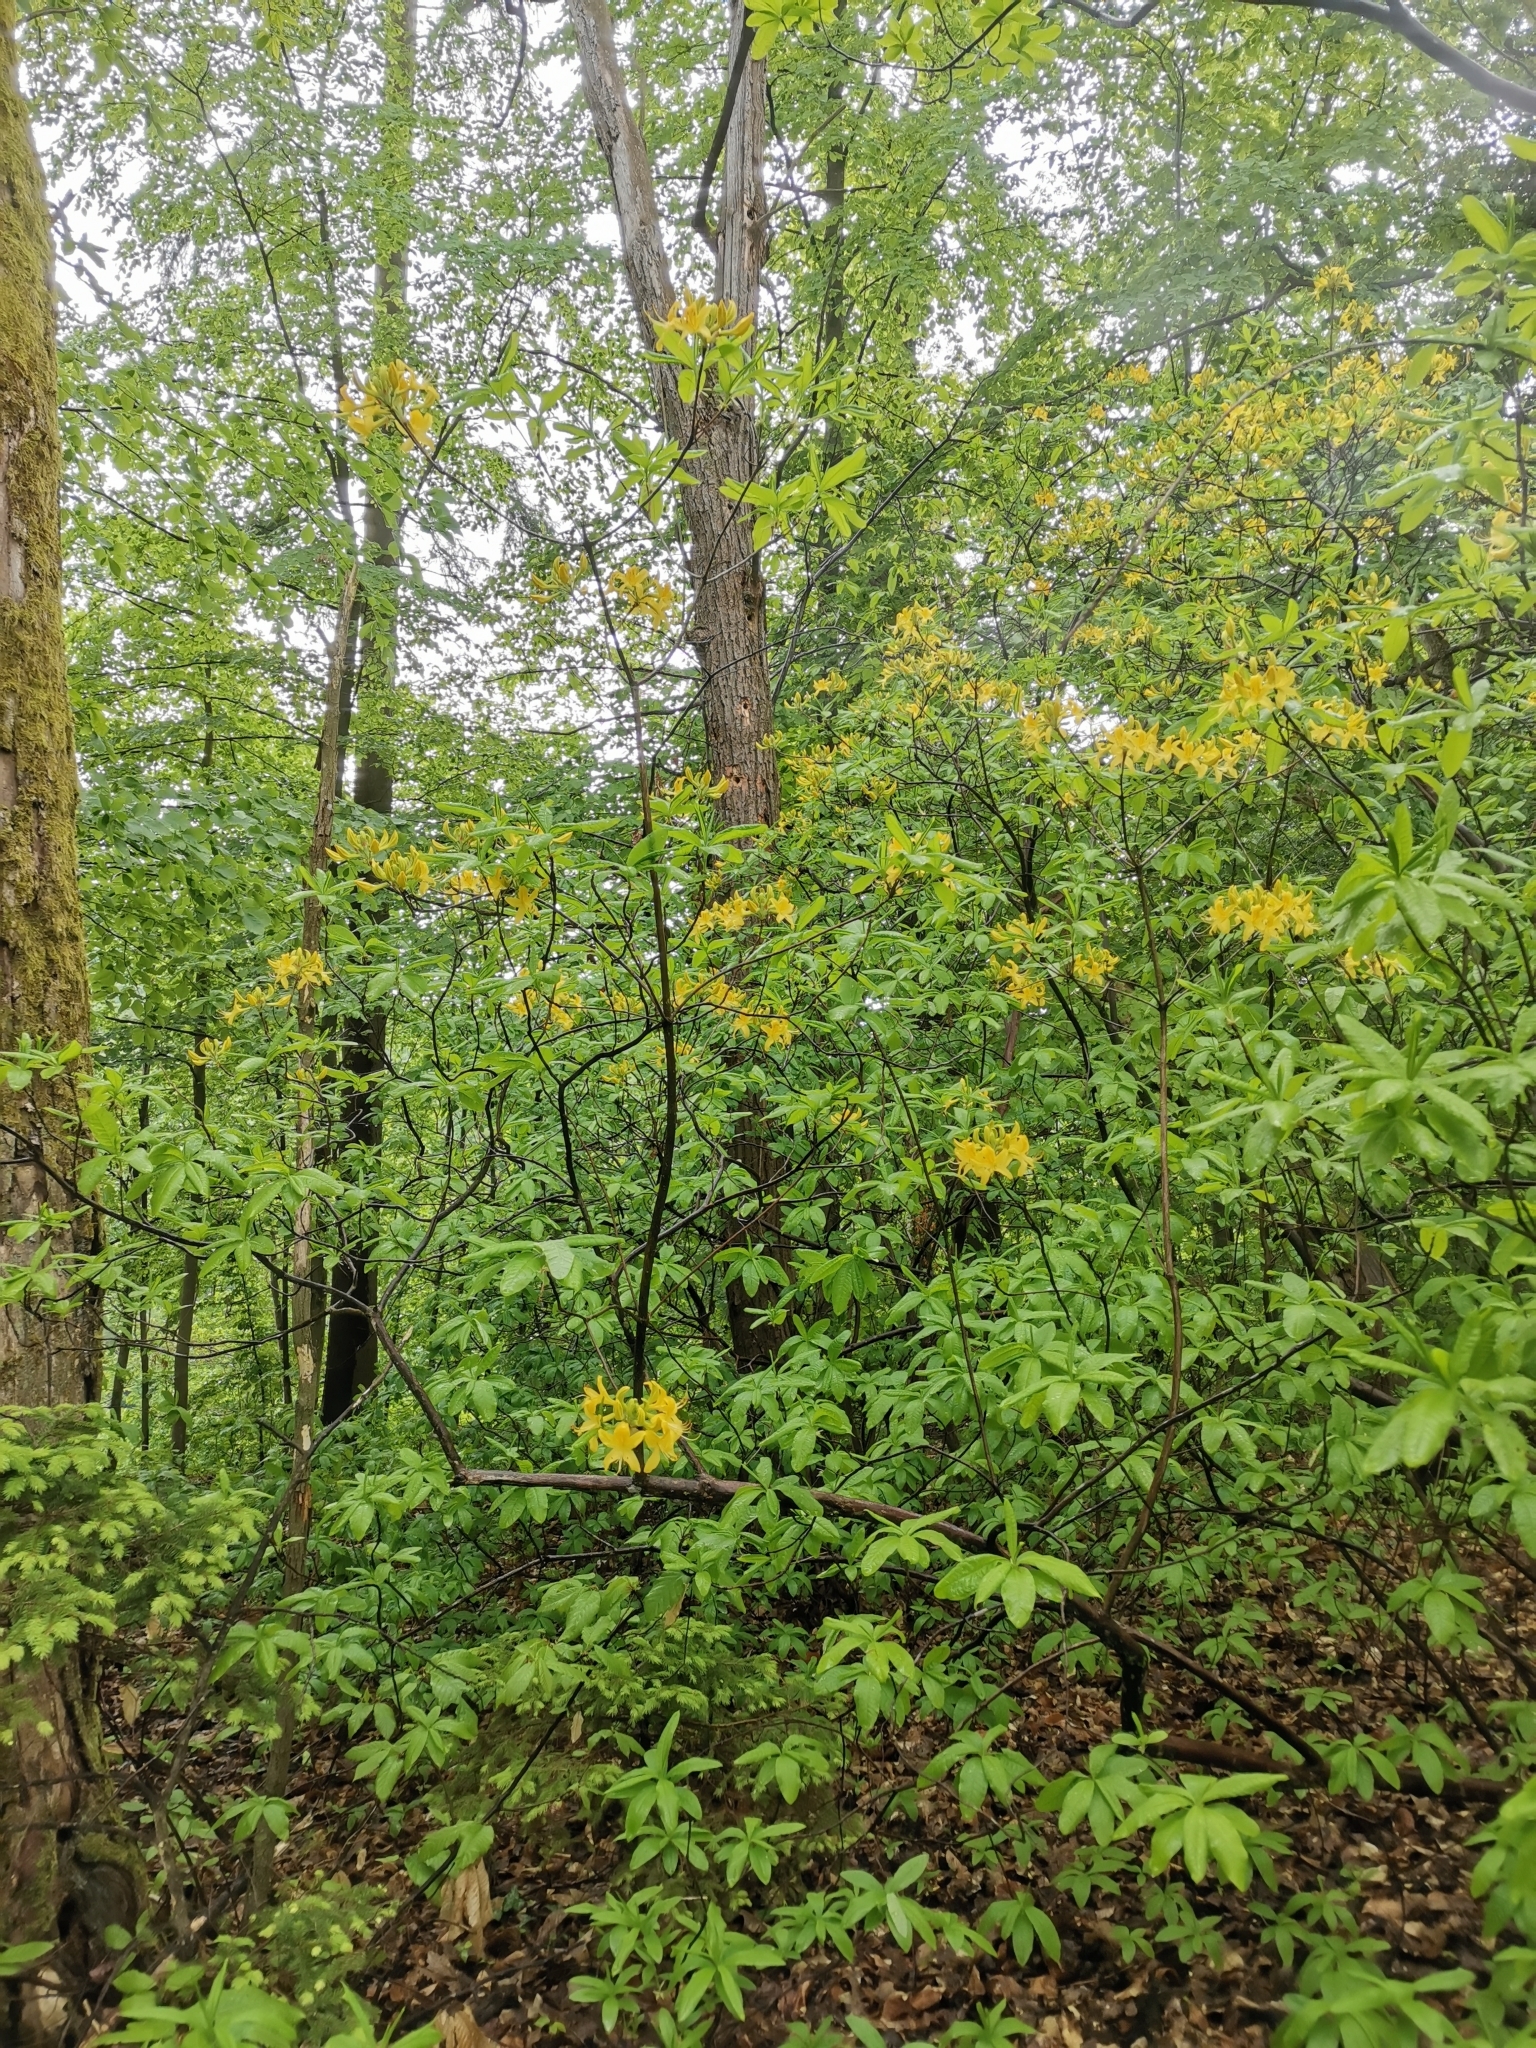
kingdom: Plantae
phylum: Tracheophyta
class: Magnoliopsida
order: Ericales
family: Ericaceae
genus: Rhododendron
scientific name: Rhododendron luteum
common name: Yellow azalea
